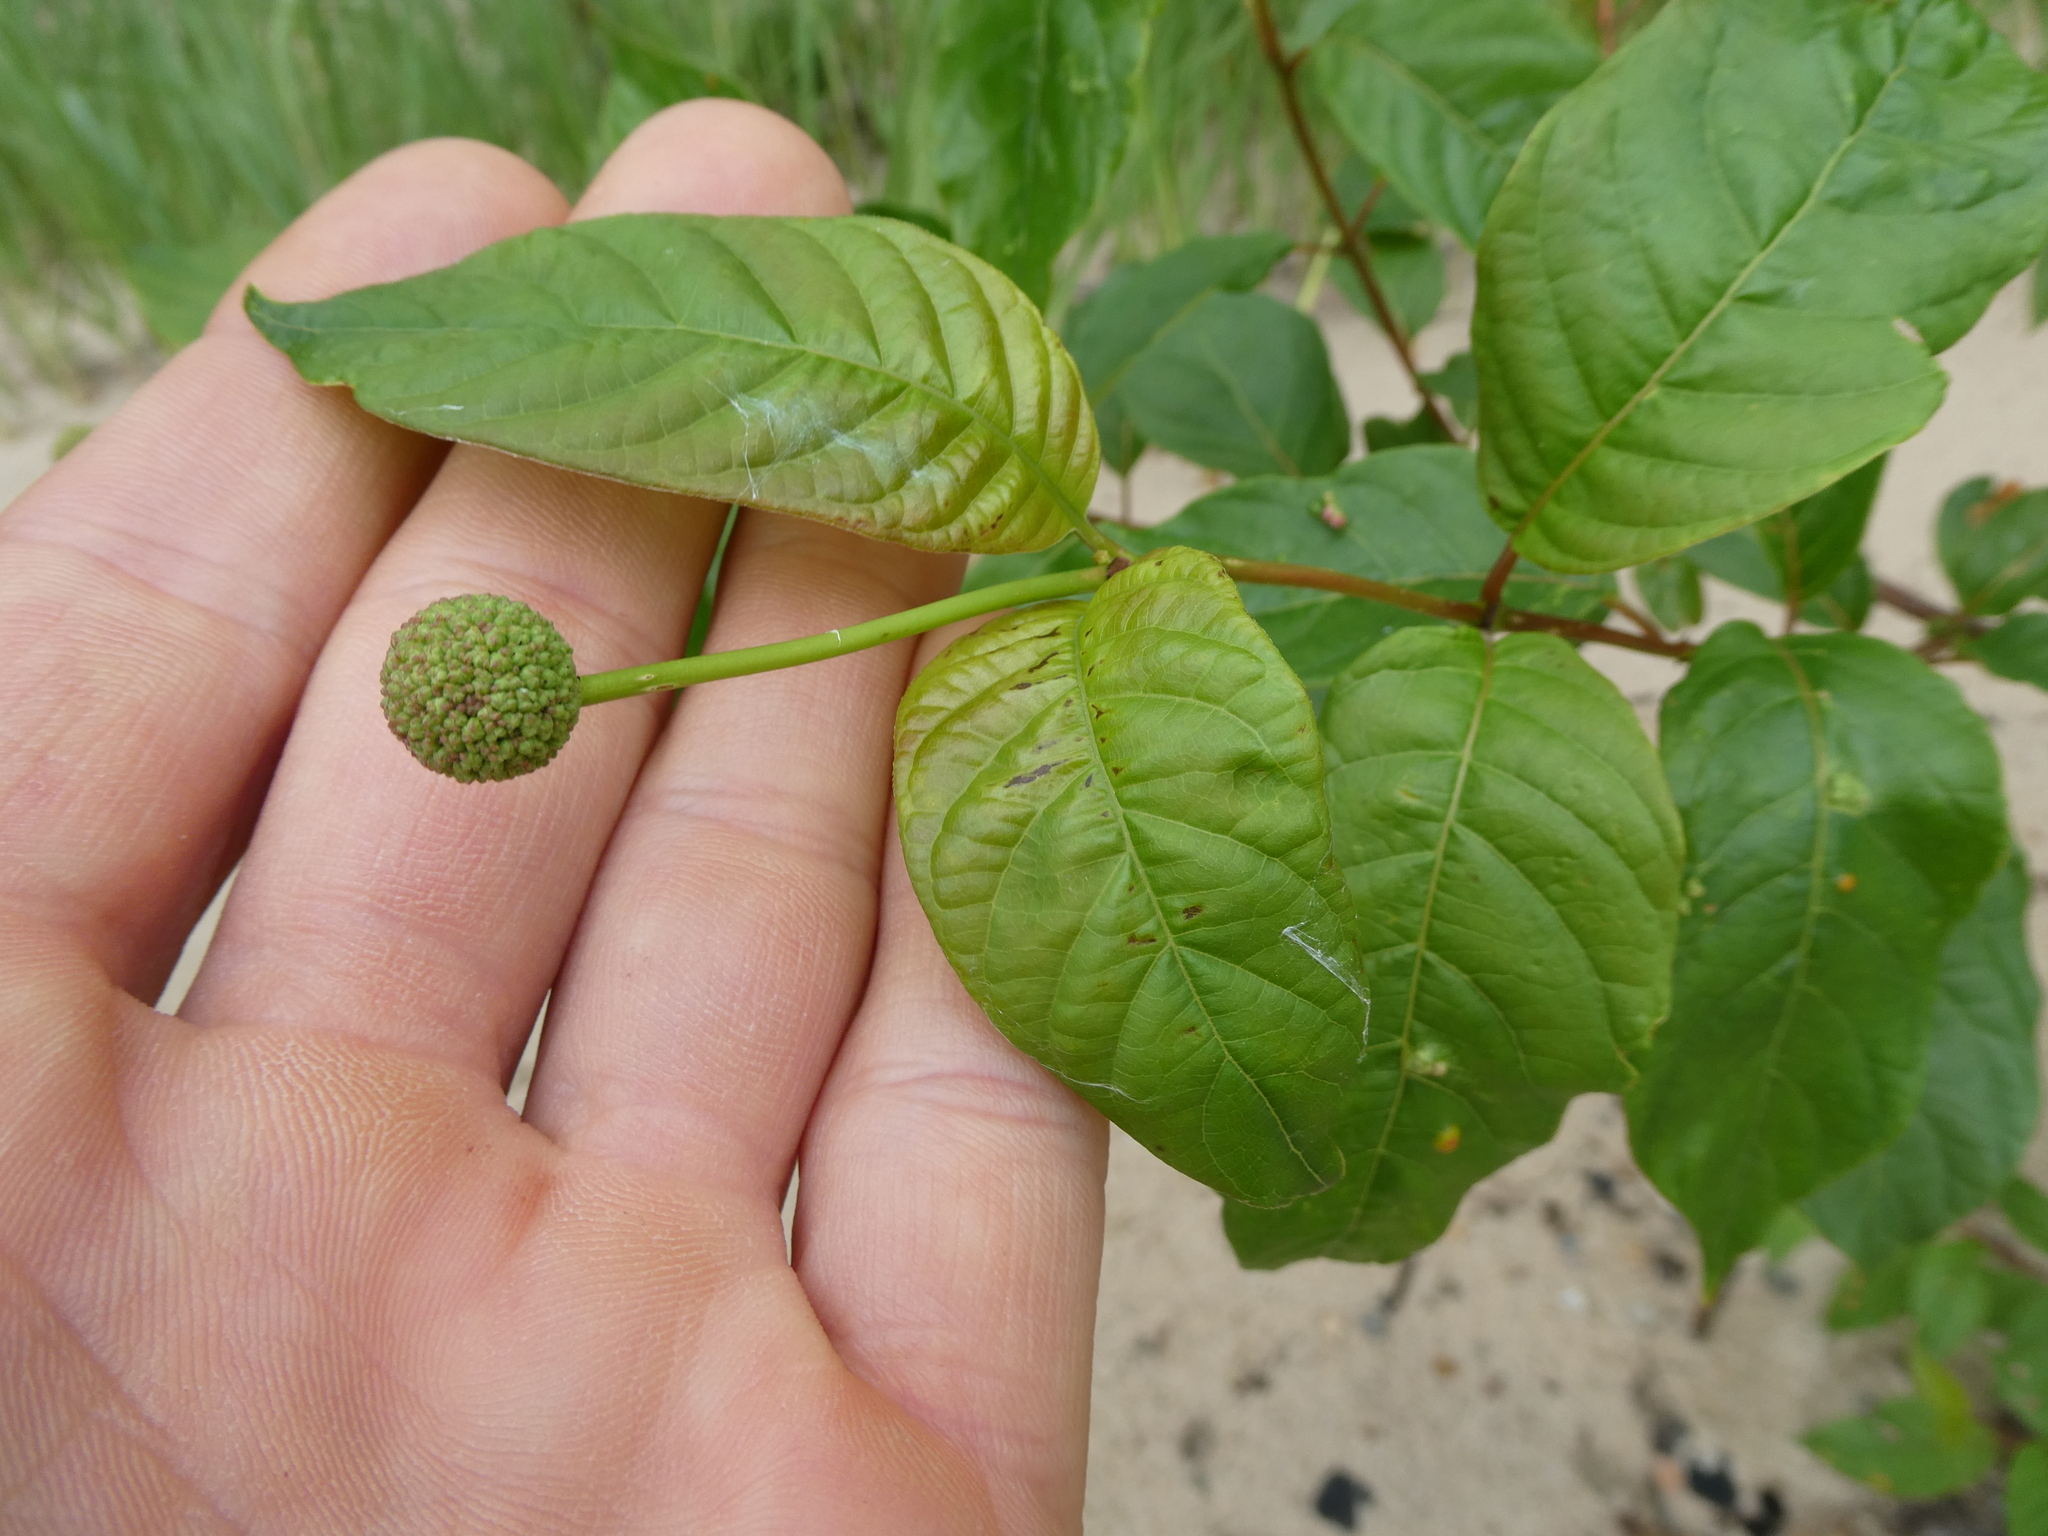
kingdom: Plantae
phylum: Tracheophyta
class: Magnoliopsida
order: Gentianales
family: Rubiaceae
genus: Cephalanthus
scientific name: Cephalanthus occidentalis
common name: Button-willow
